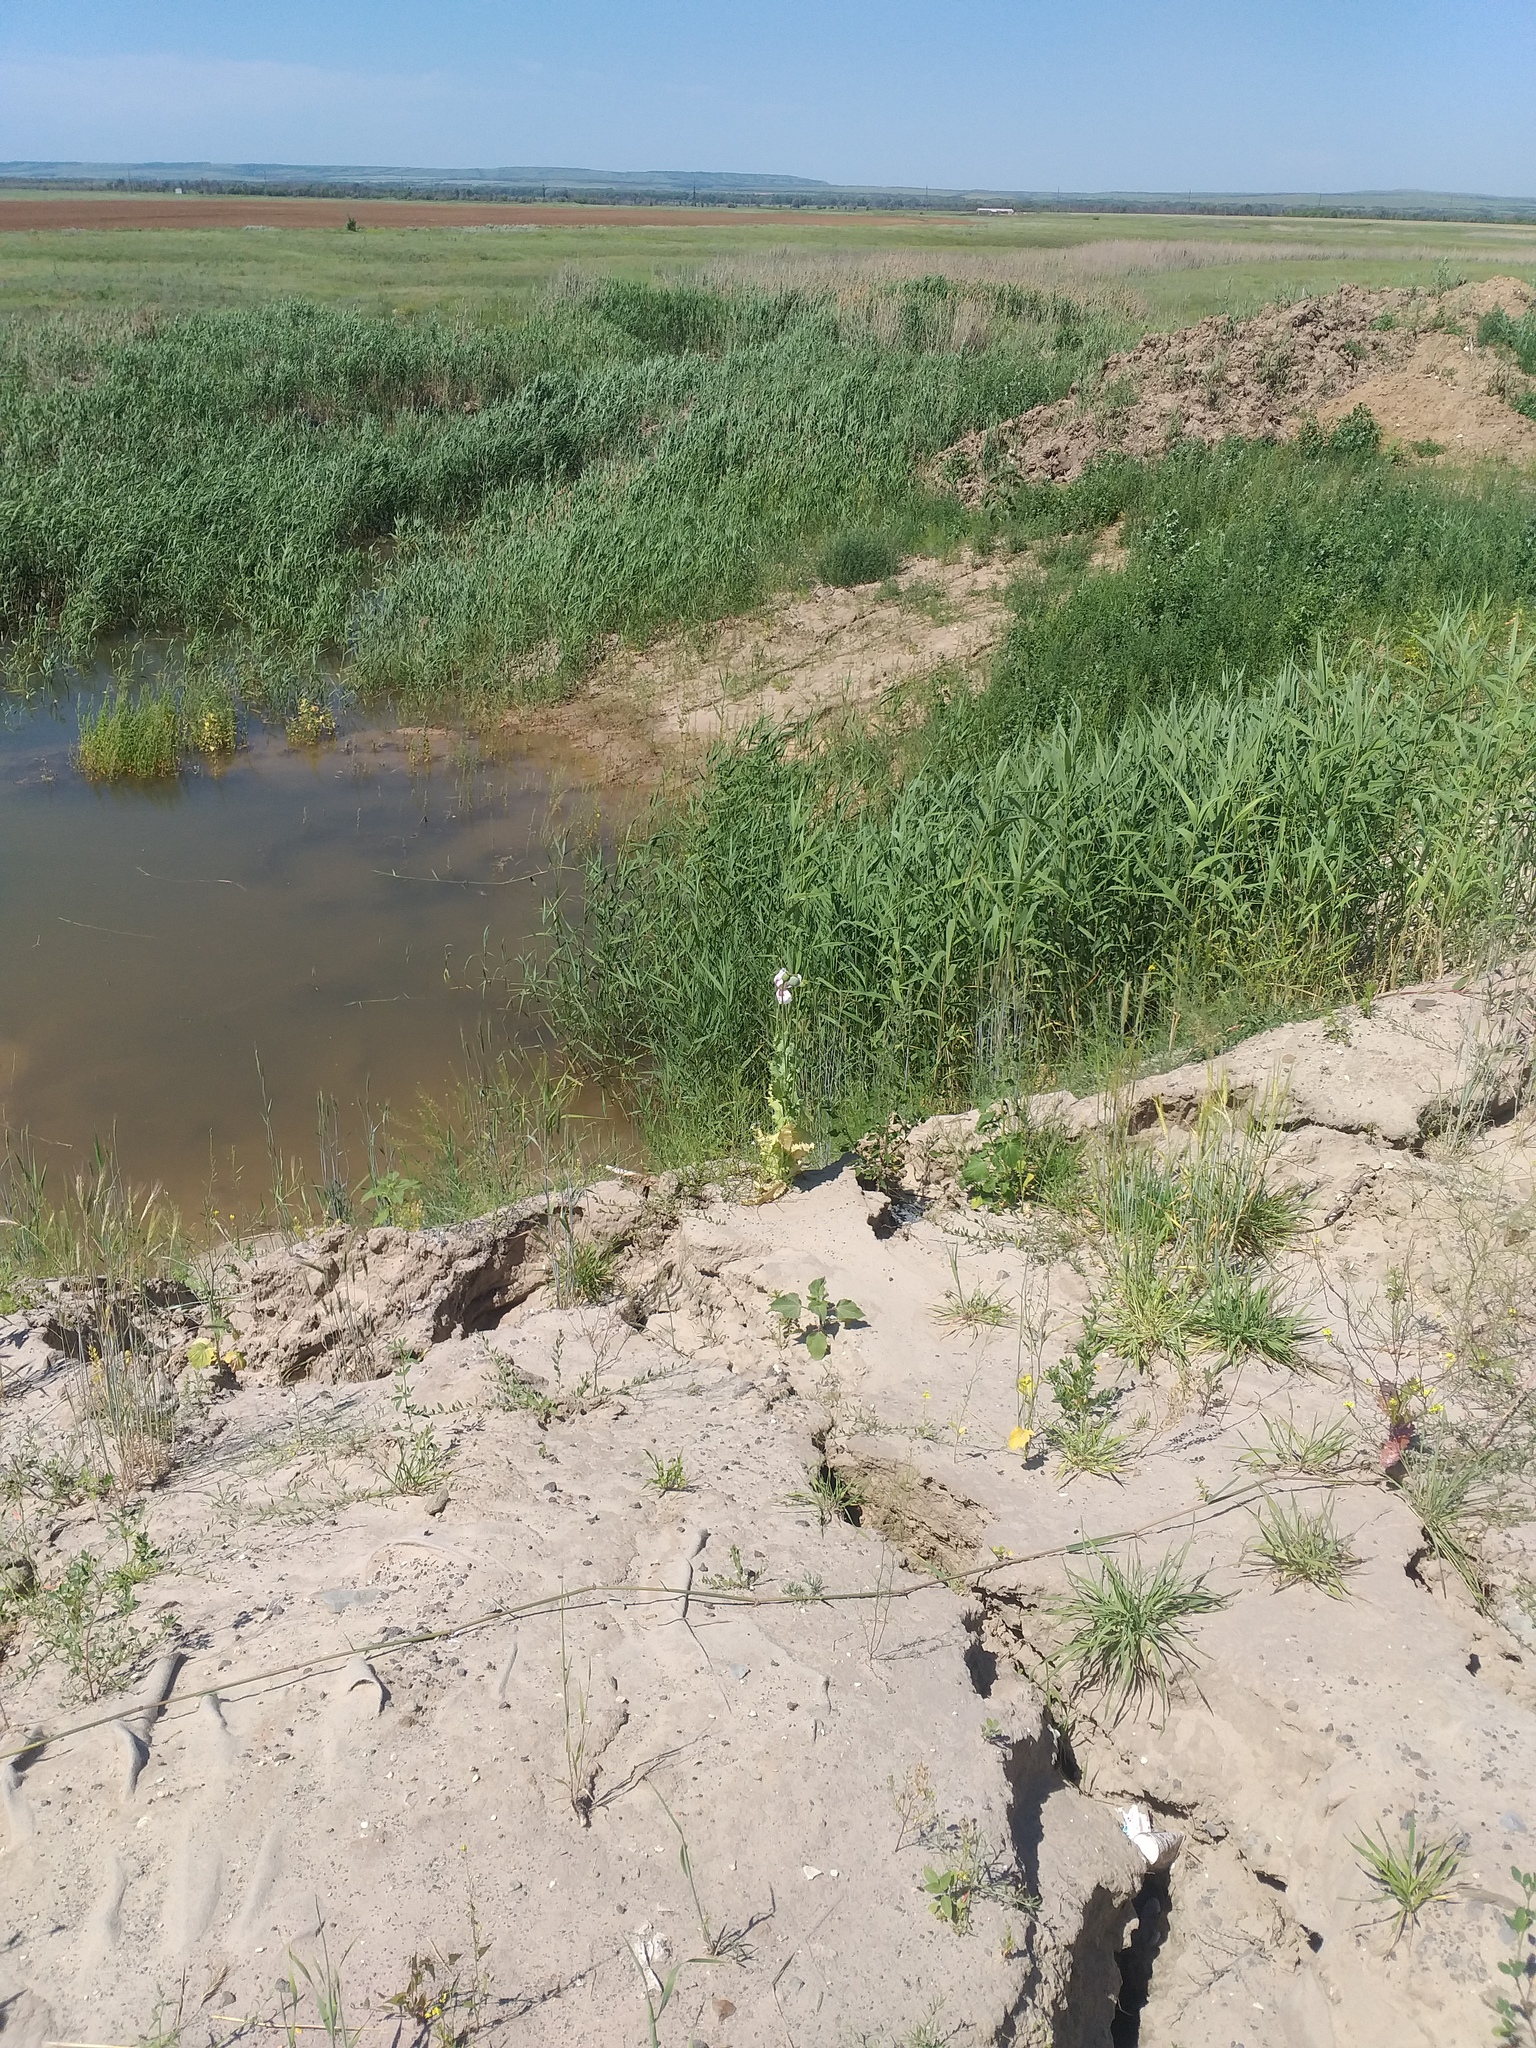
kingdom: Plantae
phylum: Tracheophyta
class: Magnoliopsida
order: Ranunculales
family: Papaveraceae
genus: Papaver
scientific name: Papaver somniferum
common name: Opium poppy
